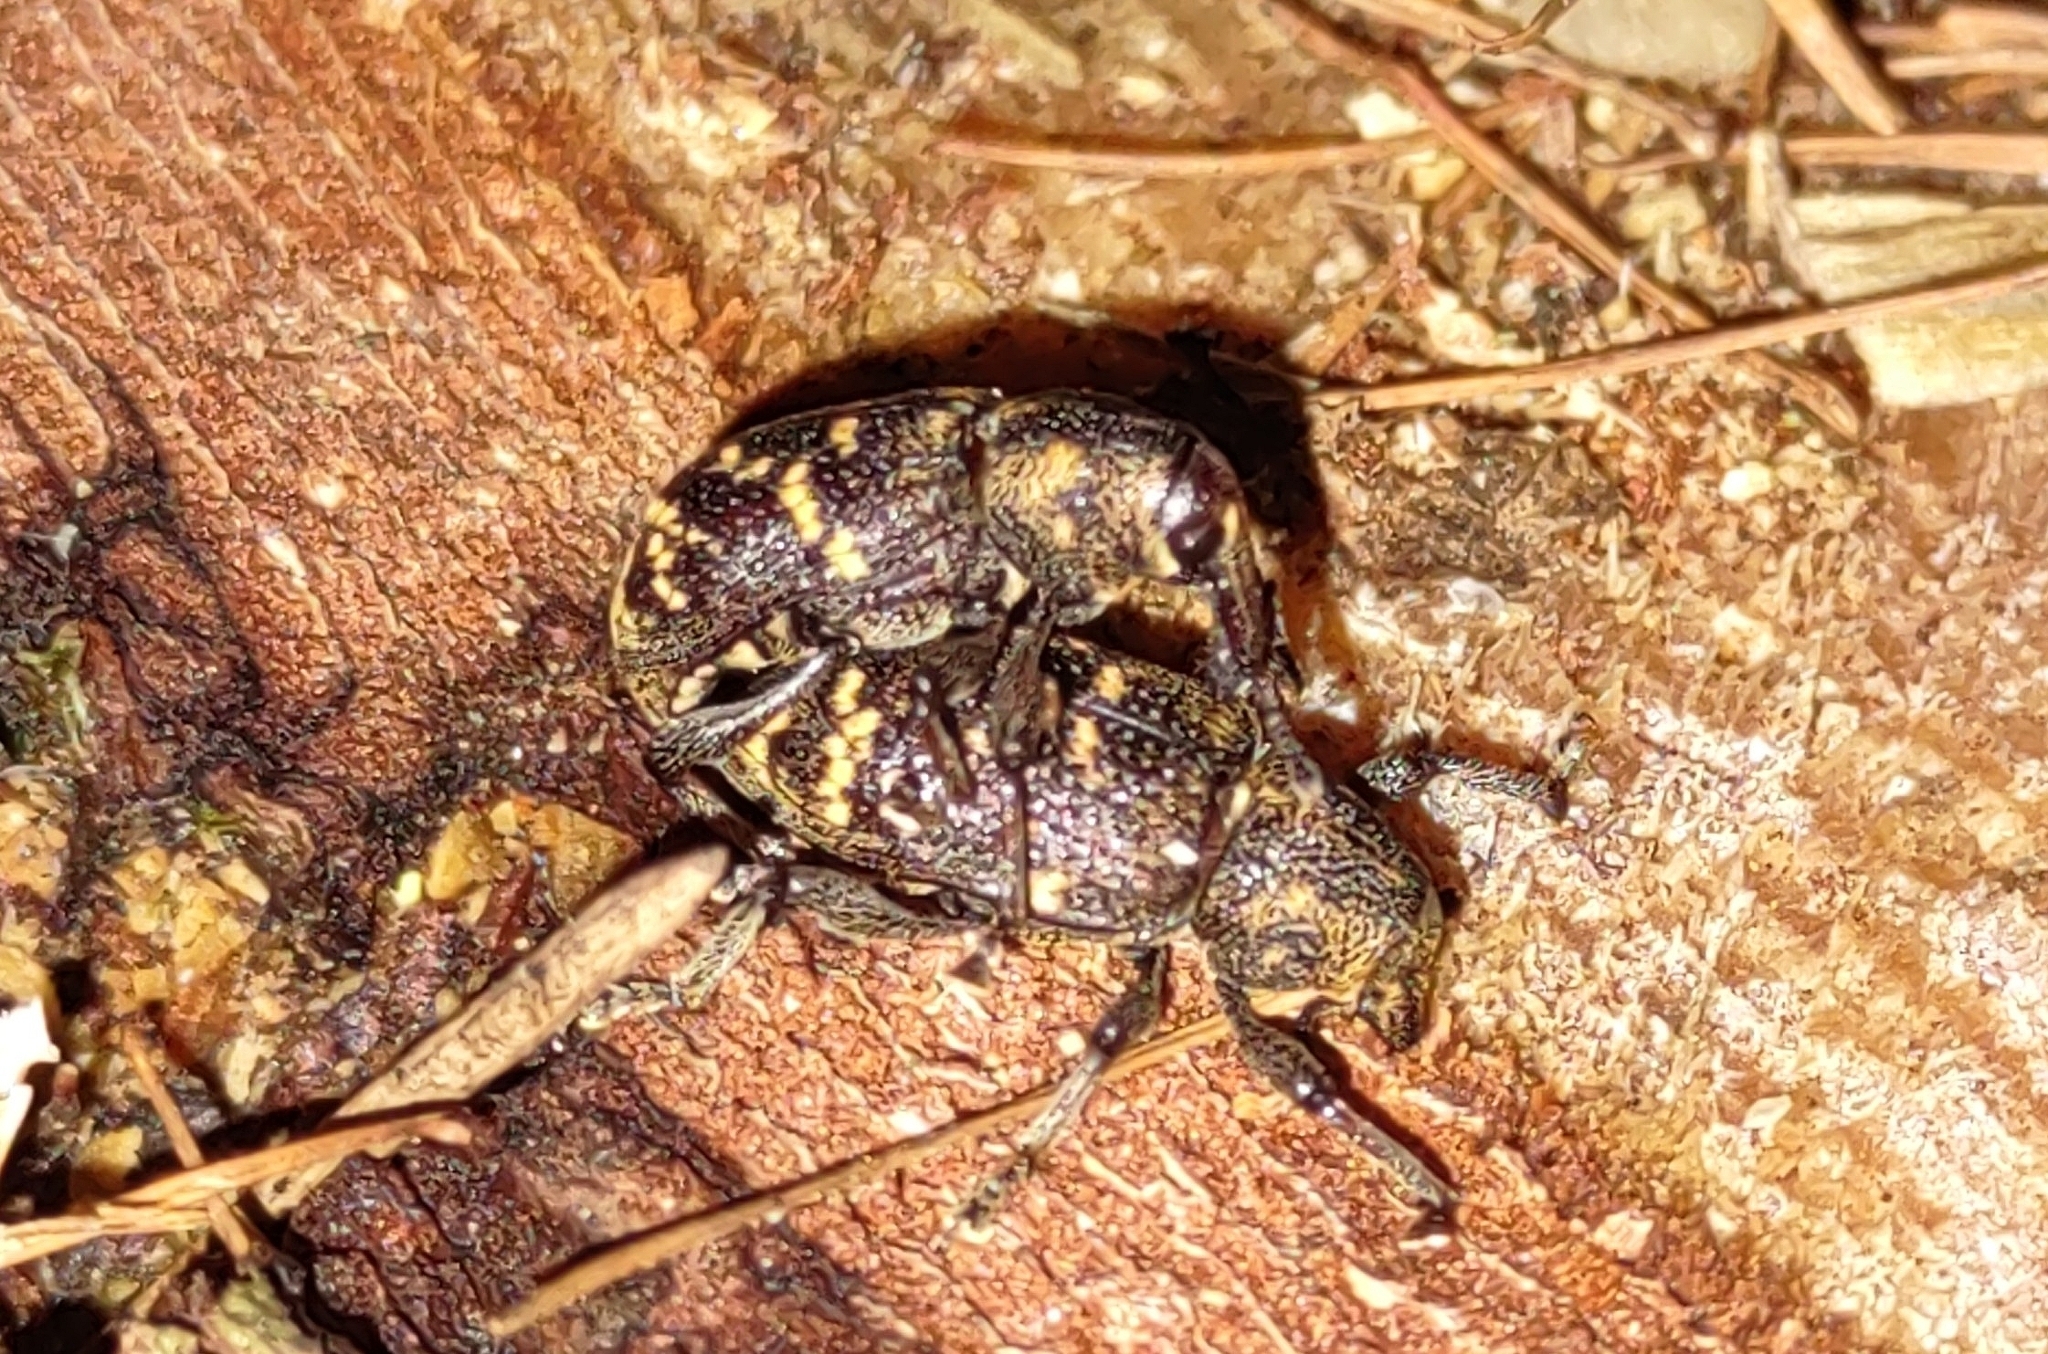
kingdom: Animalia
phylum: Arthropoda
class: Insecta
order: Coleoptera
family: Curculionidae
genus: Hylobius
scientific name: Hylobius abietis
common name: Large pine weevil
